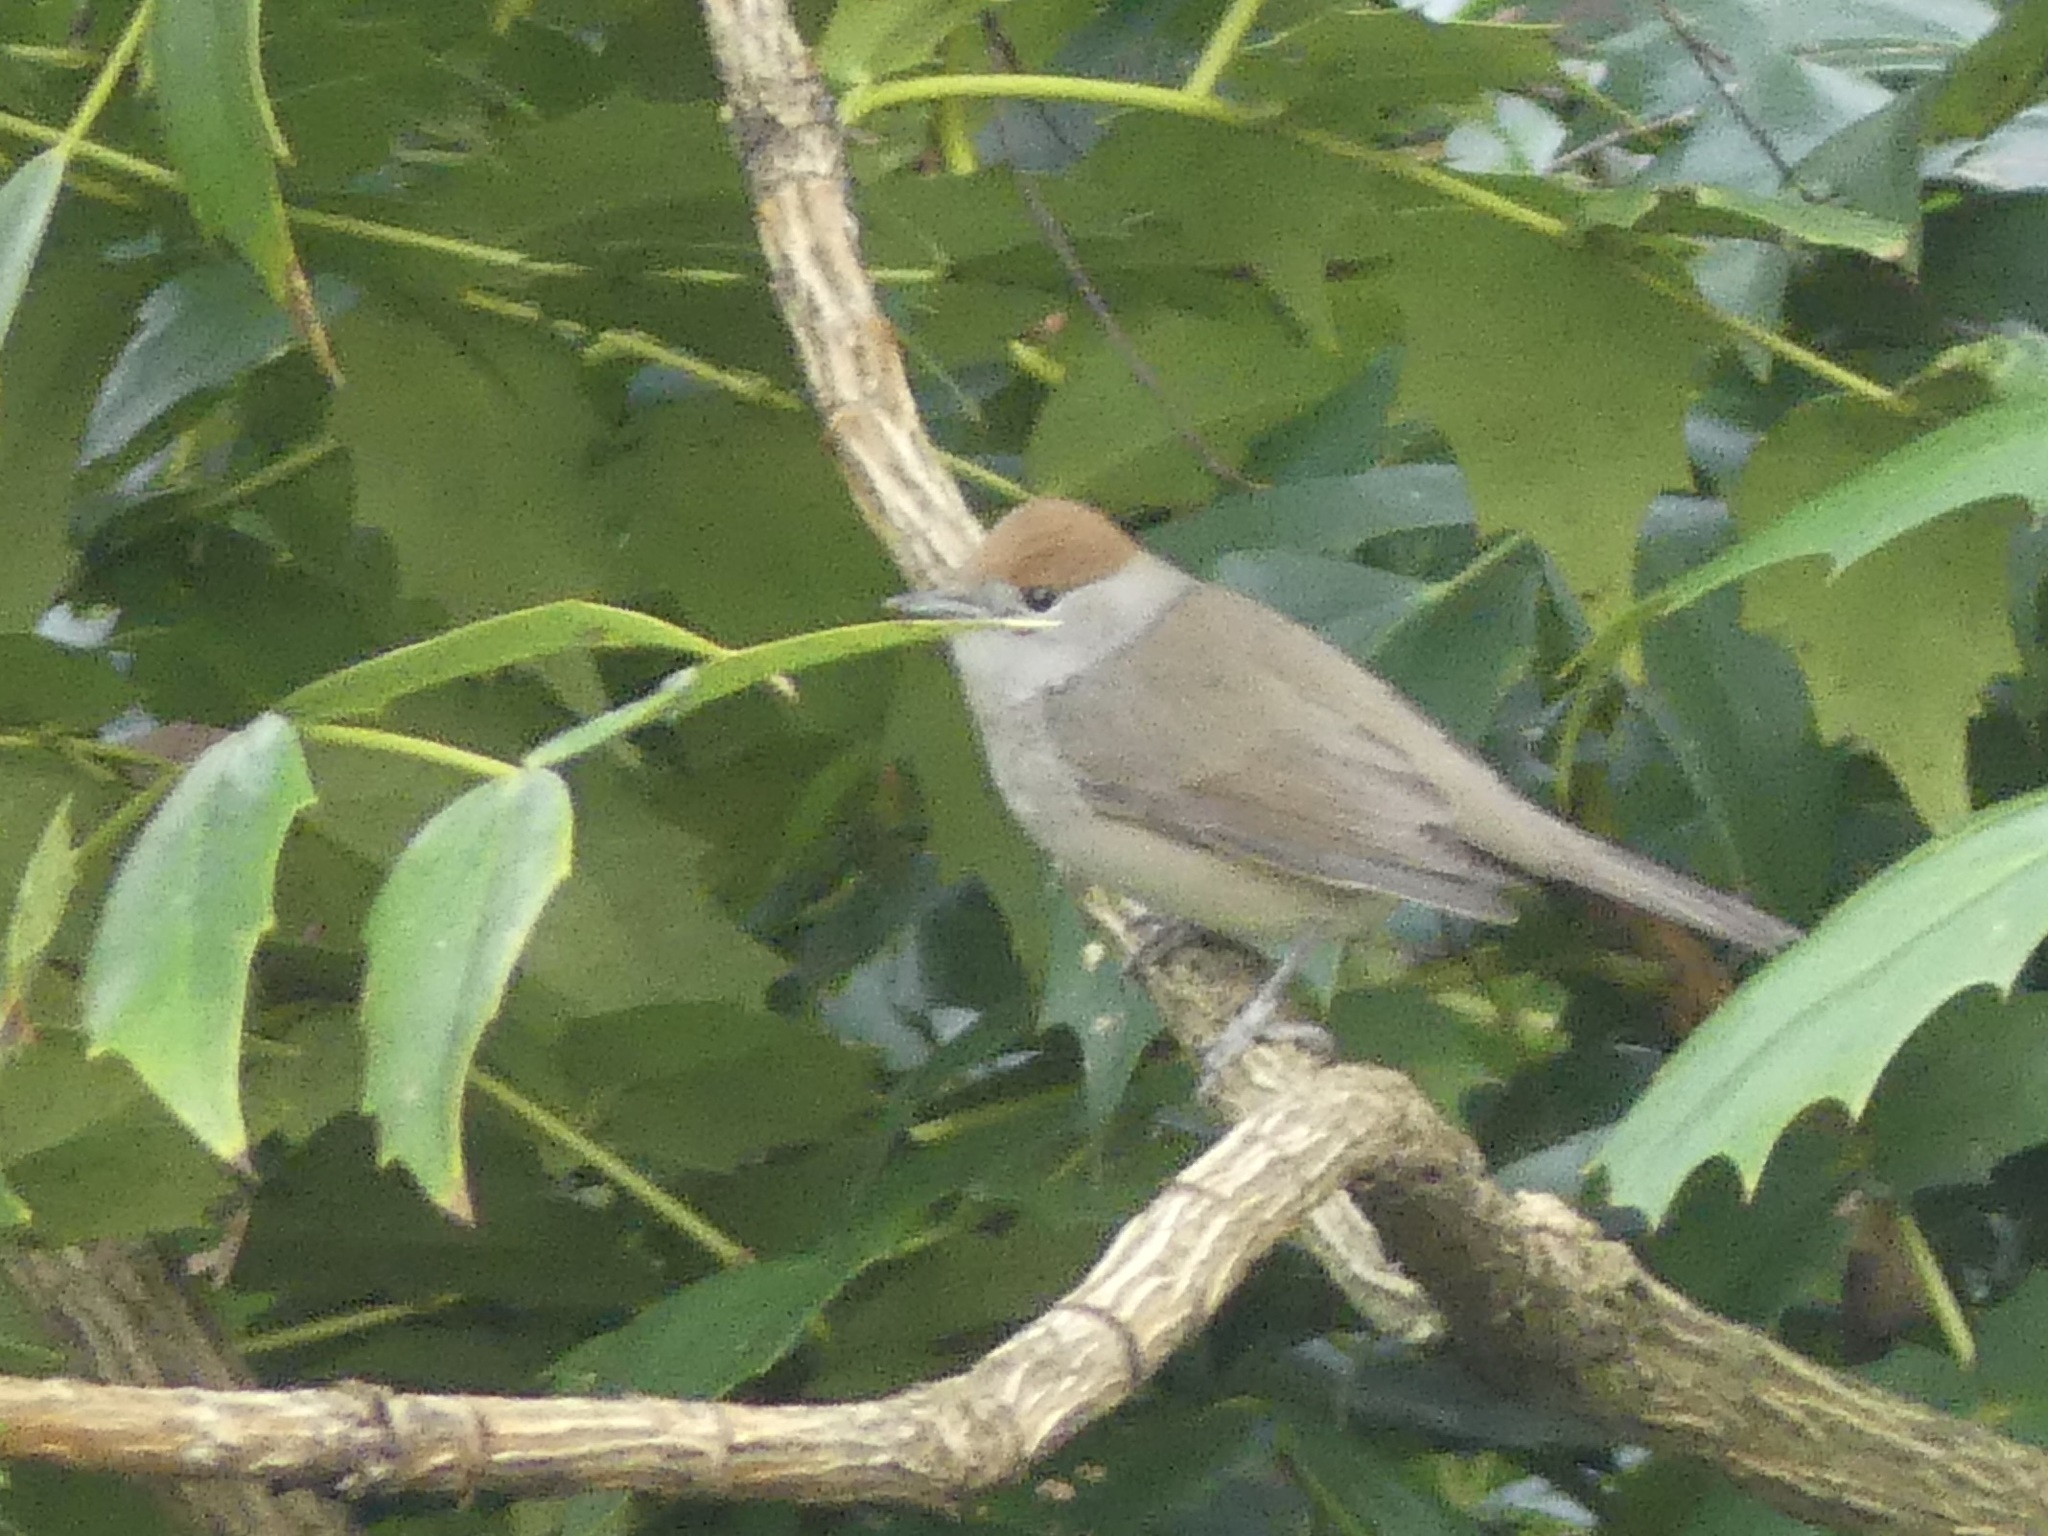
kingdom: Animalia
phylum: Chordata
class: Aves
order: Passeriformes
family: Sylviidae
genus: Sylvia
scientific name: Sylvia atricapilla
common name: Eurasian blackcap
